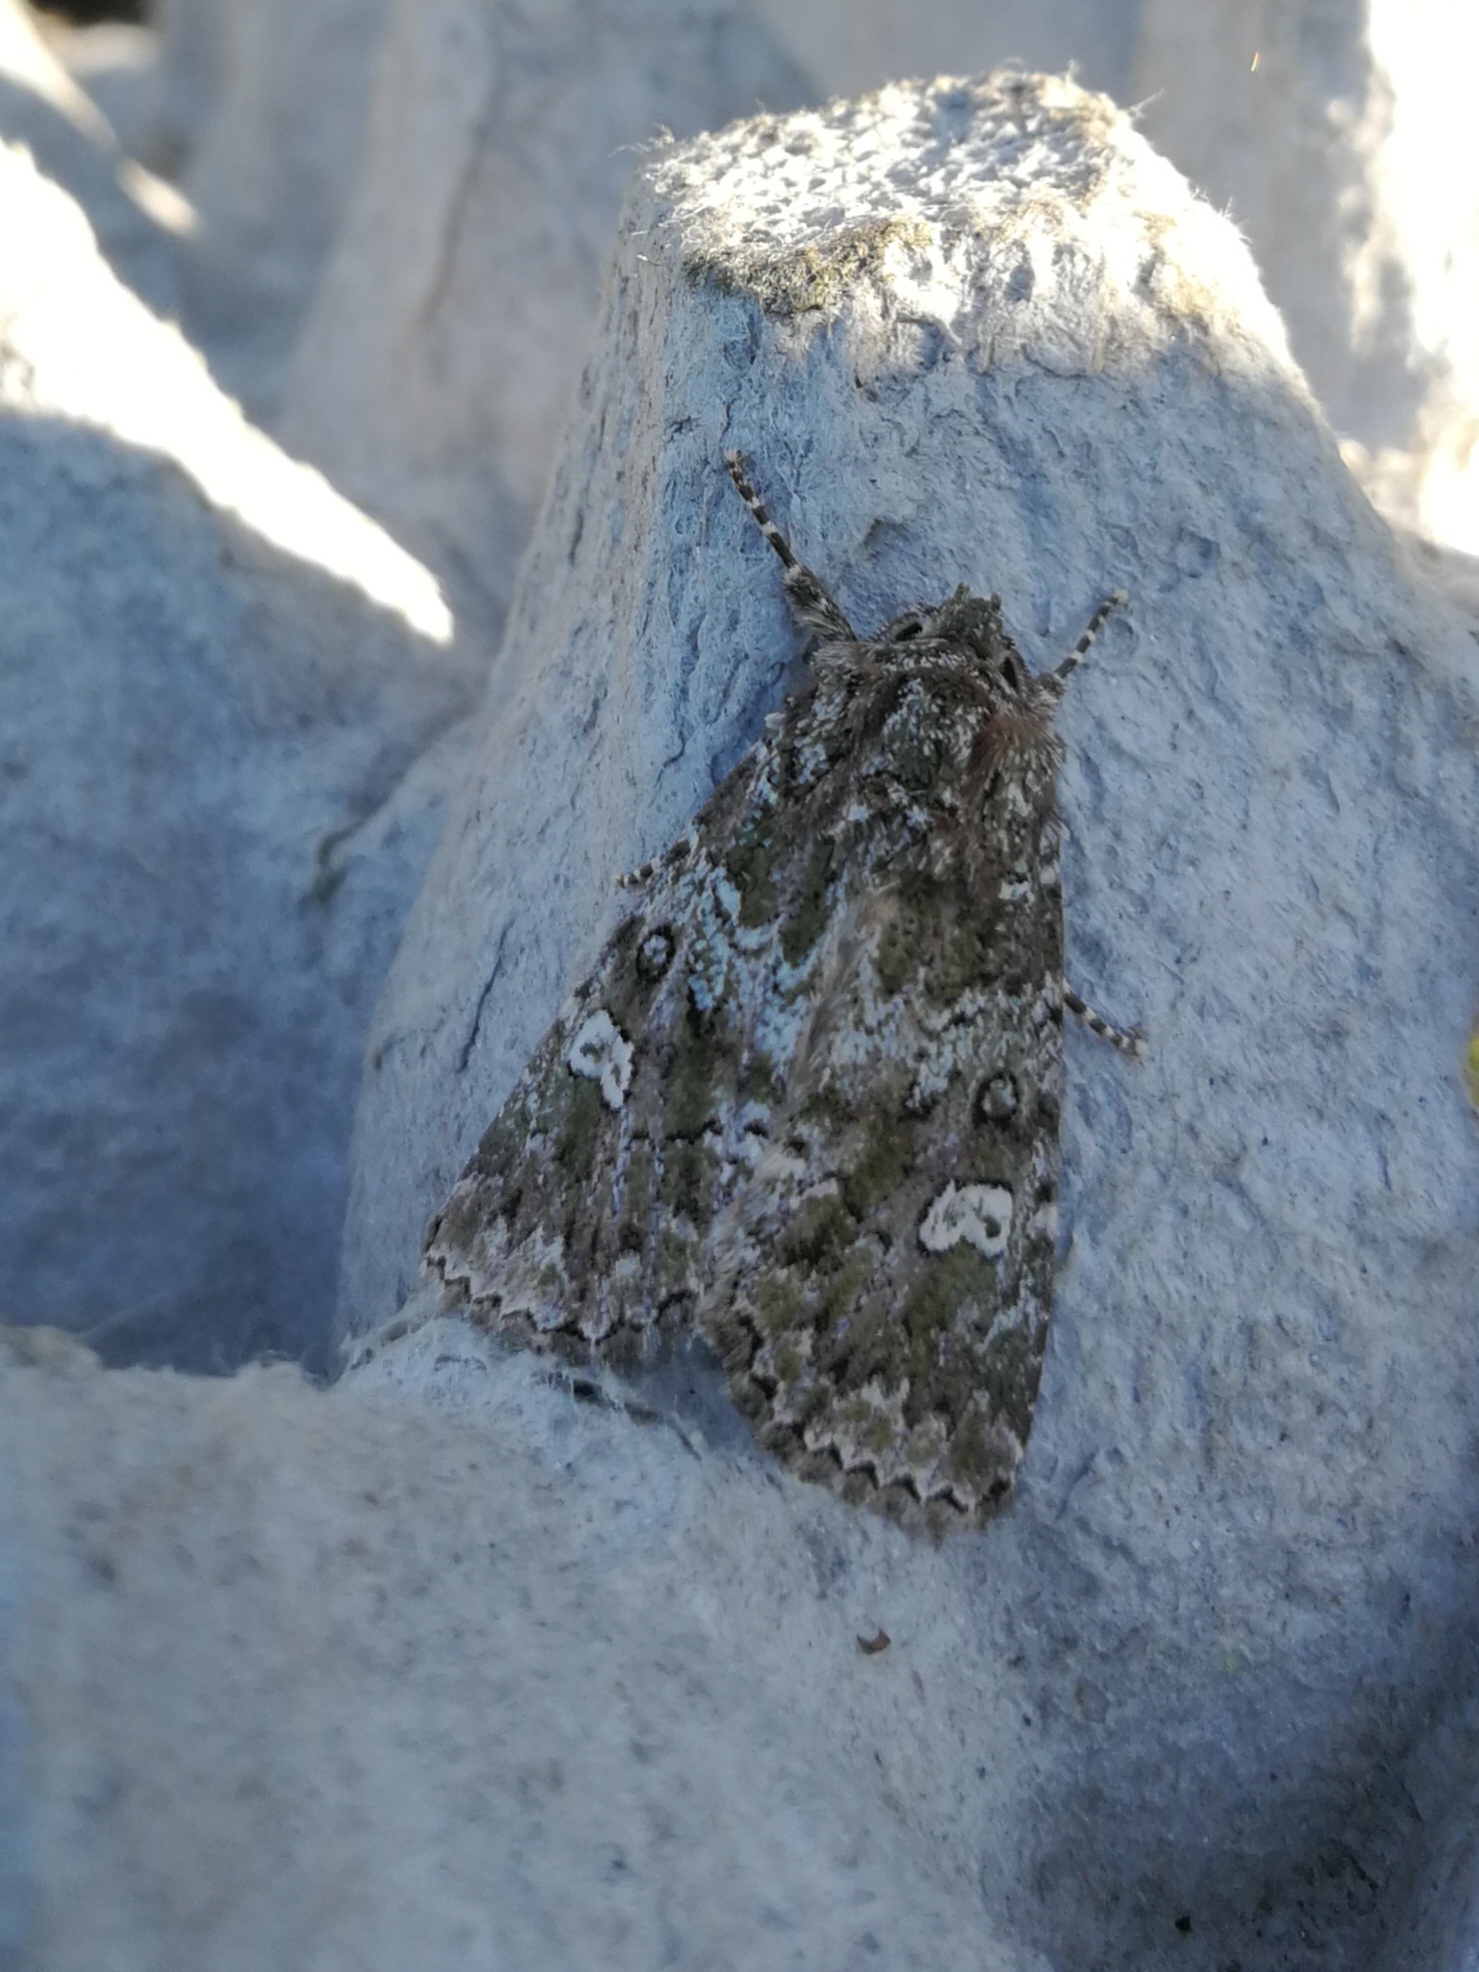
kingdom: Animalia
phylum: Arthropoda
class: Insecta
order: Lepidoptera
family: Noctuidae
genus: Olivenebula
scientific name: Olivenebula xanthochloris
